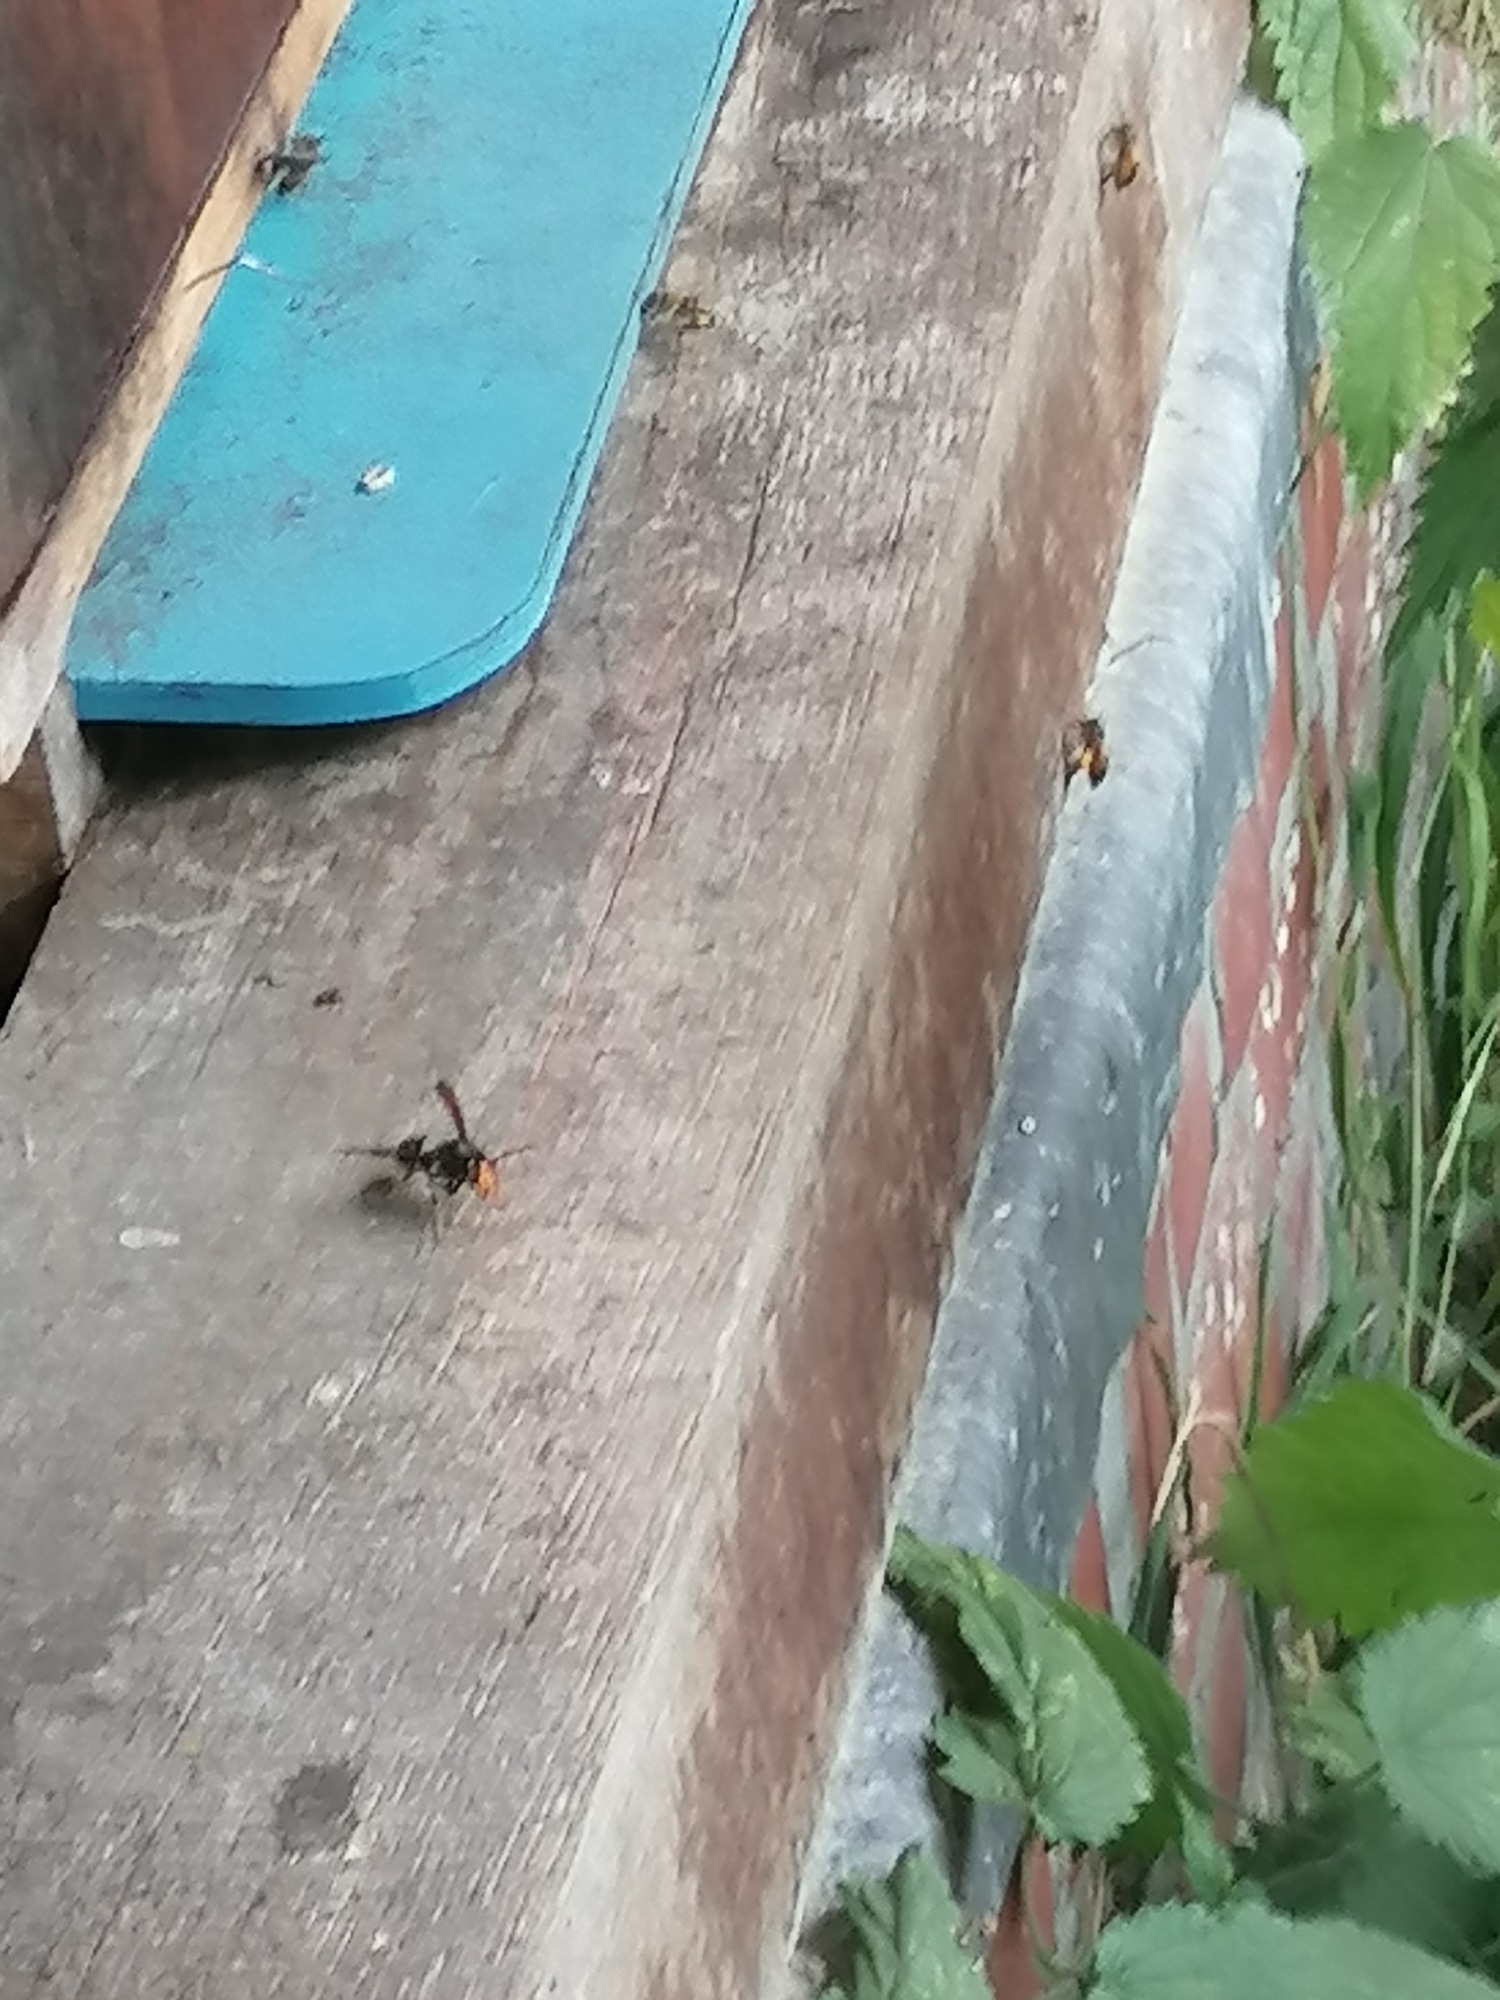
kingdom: Animalia
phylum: Arthropoda
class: Insecta
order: Hymenoptera
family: Vespidae
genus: Vespa
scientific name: Vespa velutina
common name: Asian hornet
